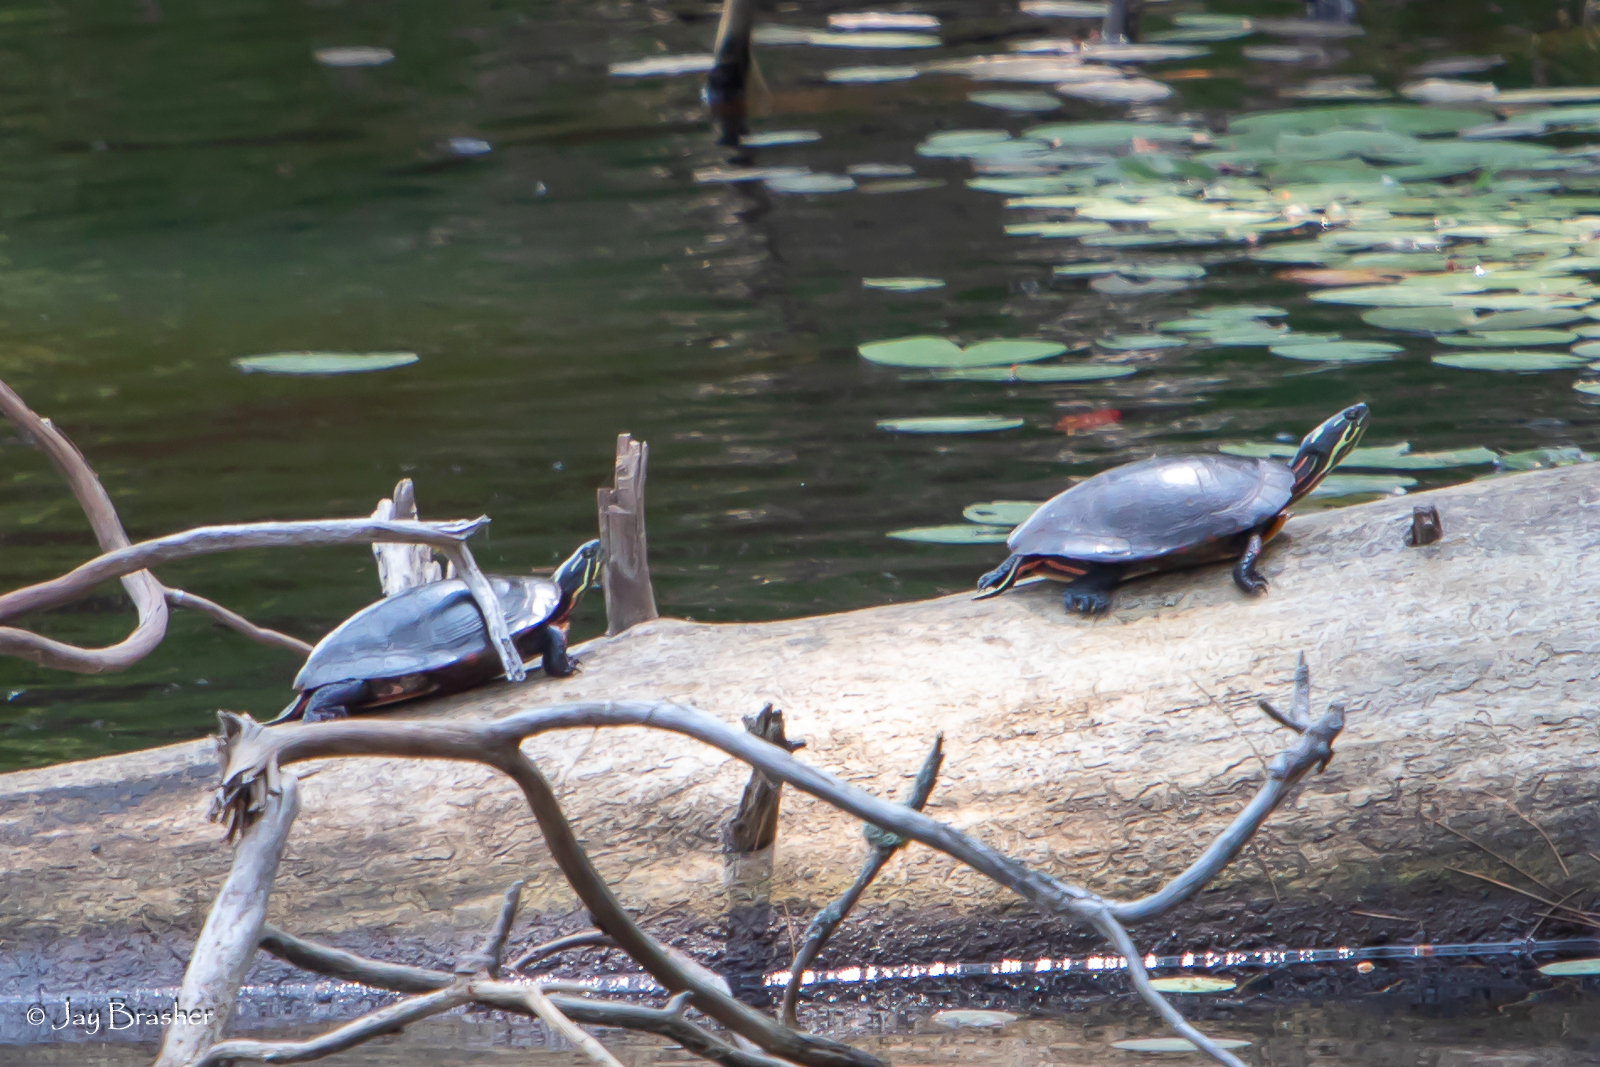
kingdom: Animalia
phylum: Chordata
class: Testudines
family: Emydidae
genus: Chrysemys
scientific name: Chrysemys picta
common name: Painted turtle
